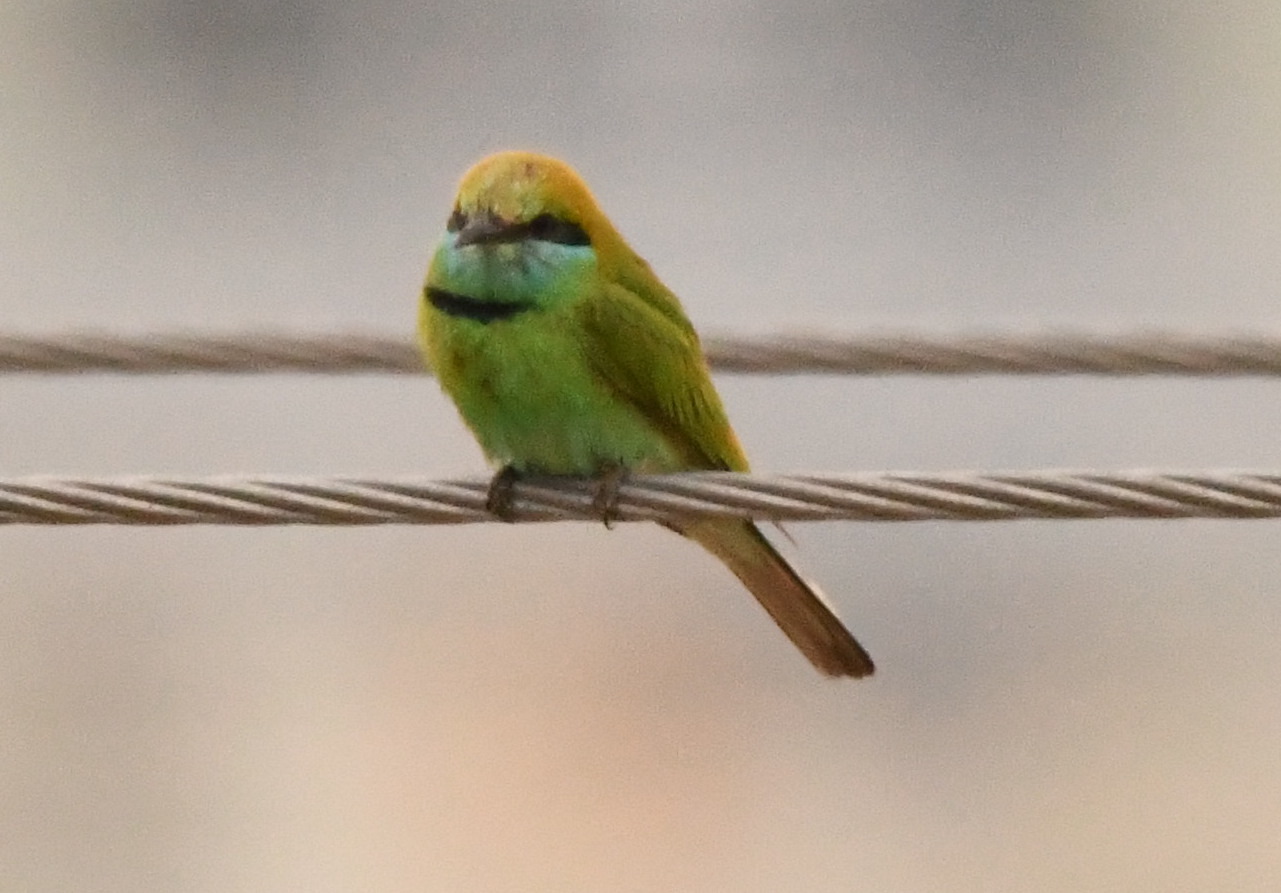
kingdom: Animalia
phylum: Chordata
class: Aves
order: Coraciiformes
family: Meropidae
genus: Merops
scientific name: Merops orientalis
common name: Green bee-eater
